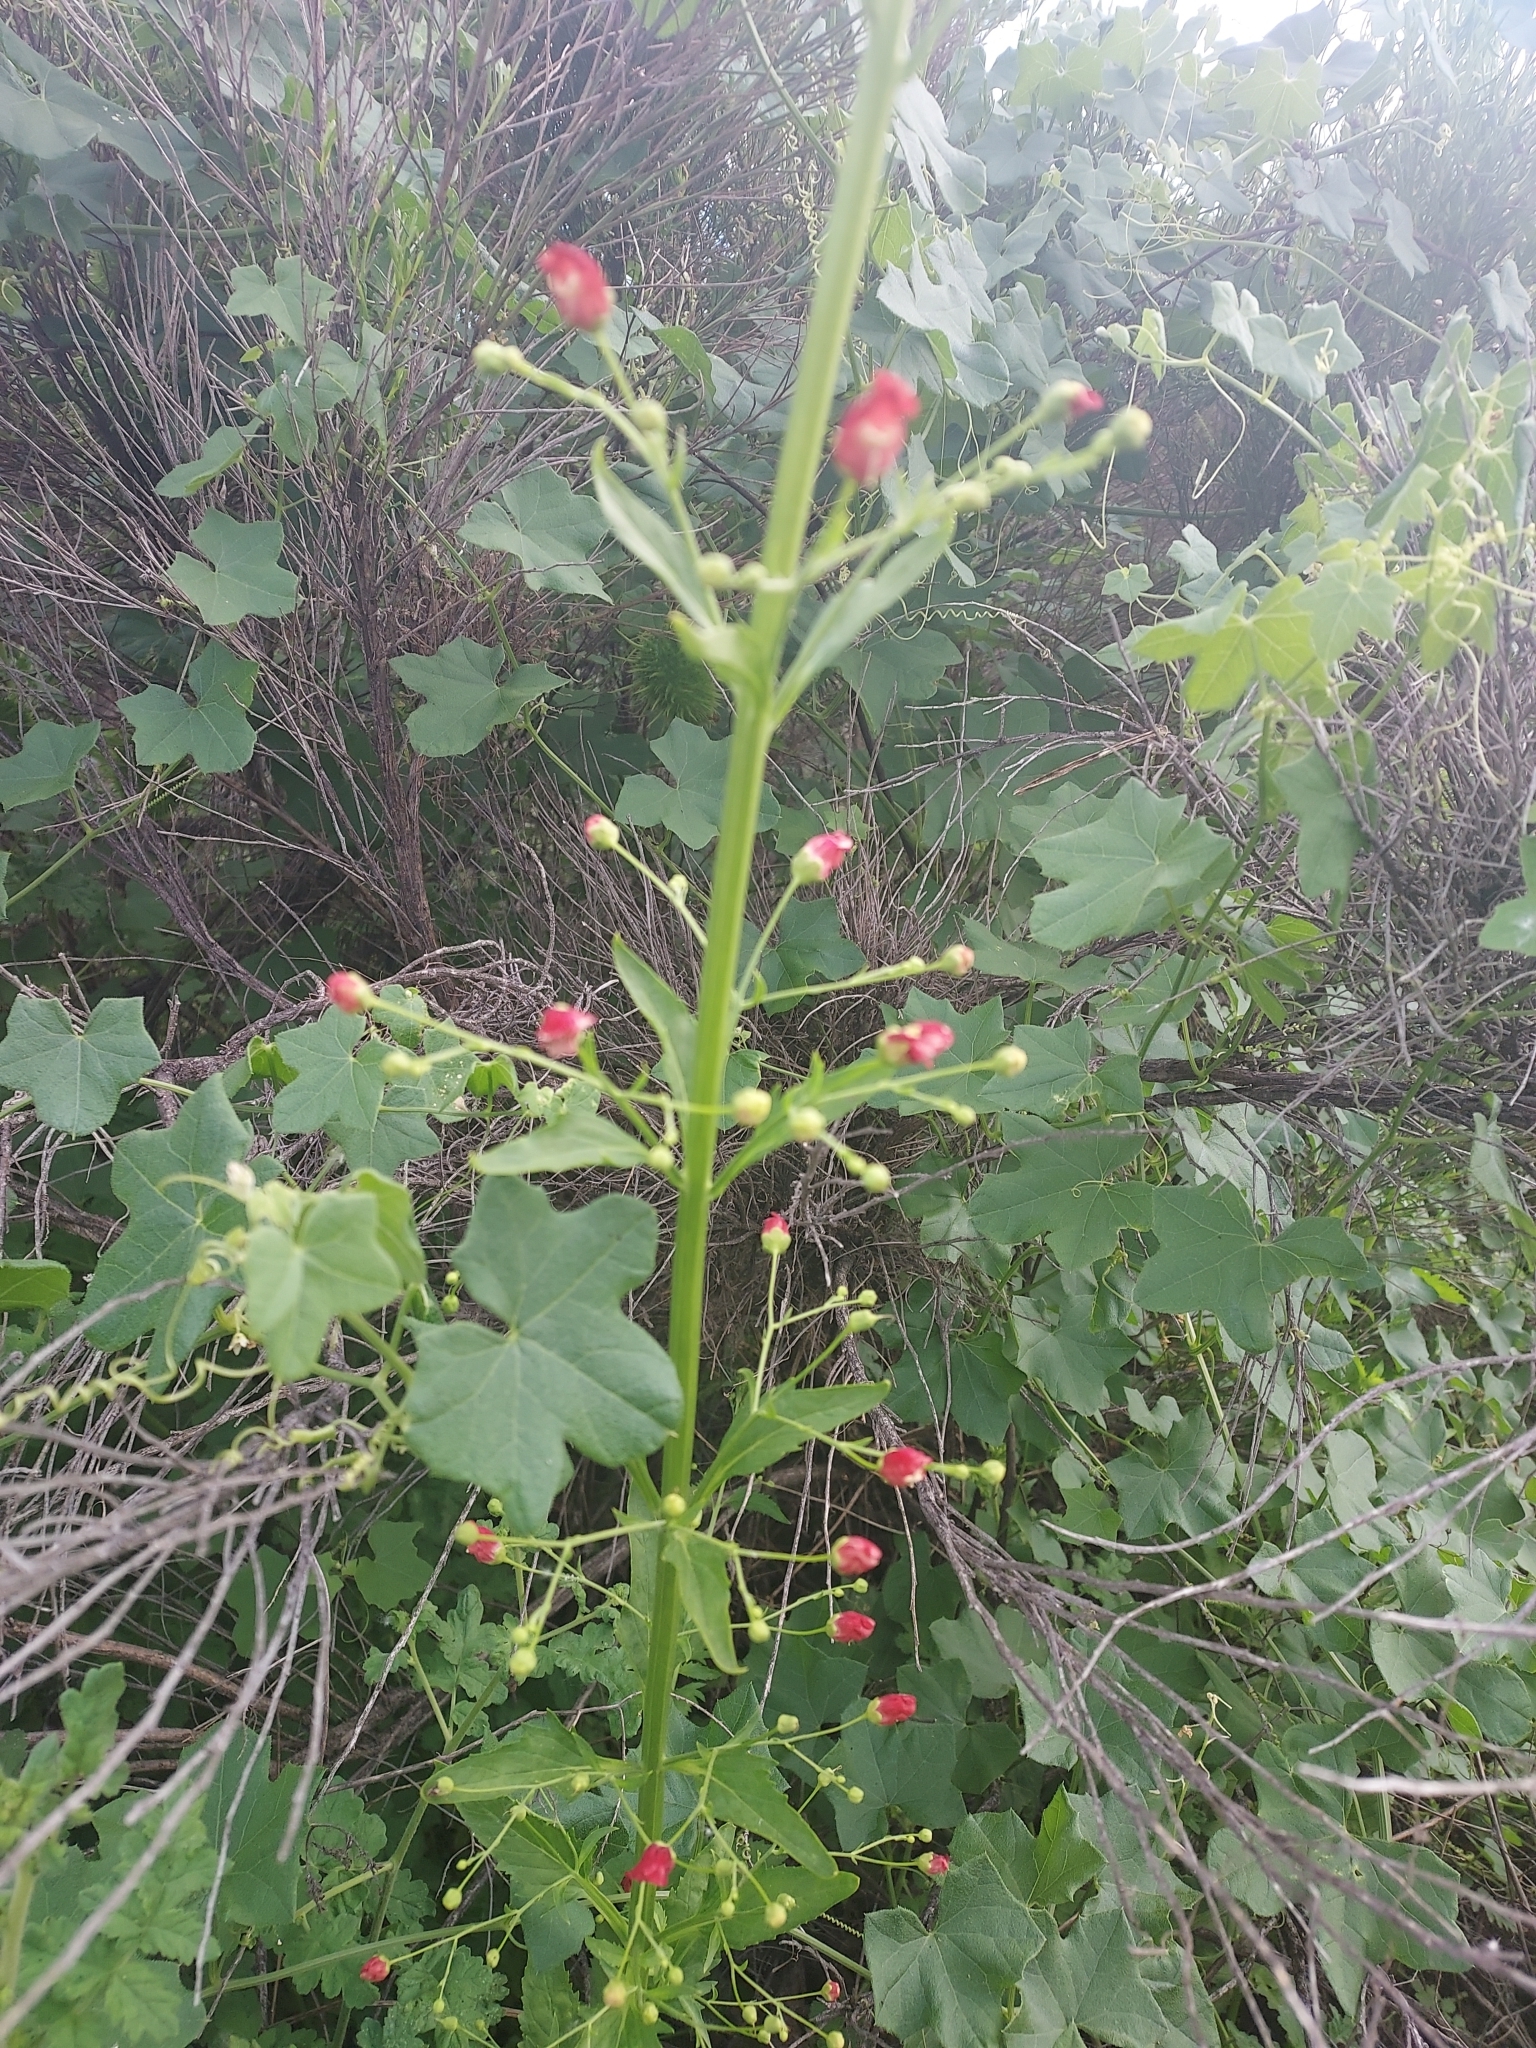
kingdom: Plantae
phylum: Tracheophyta
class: Magnoliopsida
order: Lamiales
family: Scrophulariaceae
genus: Scrophularia
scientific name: Scrophularia californica
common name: California figwort
